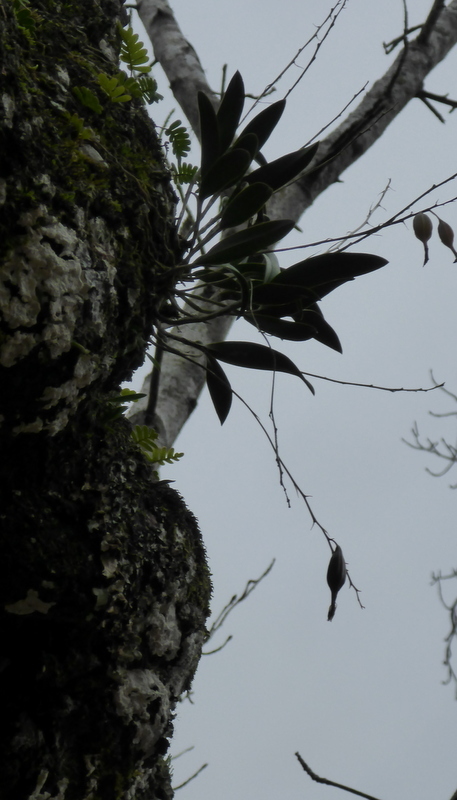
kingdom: Plantae
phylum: Tracheophyta
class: Liliopsida
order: Asparagales
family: Orchidaceae
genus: Epidendrum
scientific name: Epidendrum conopseum
